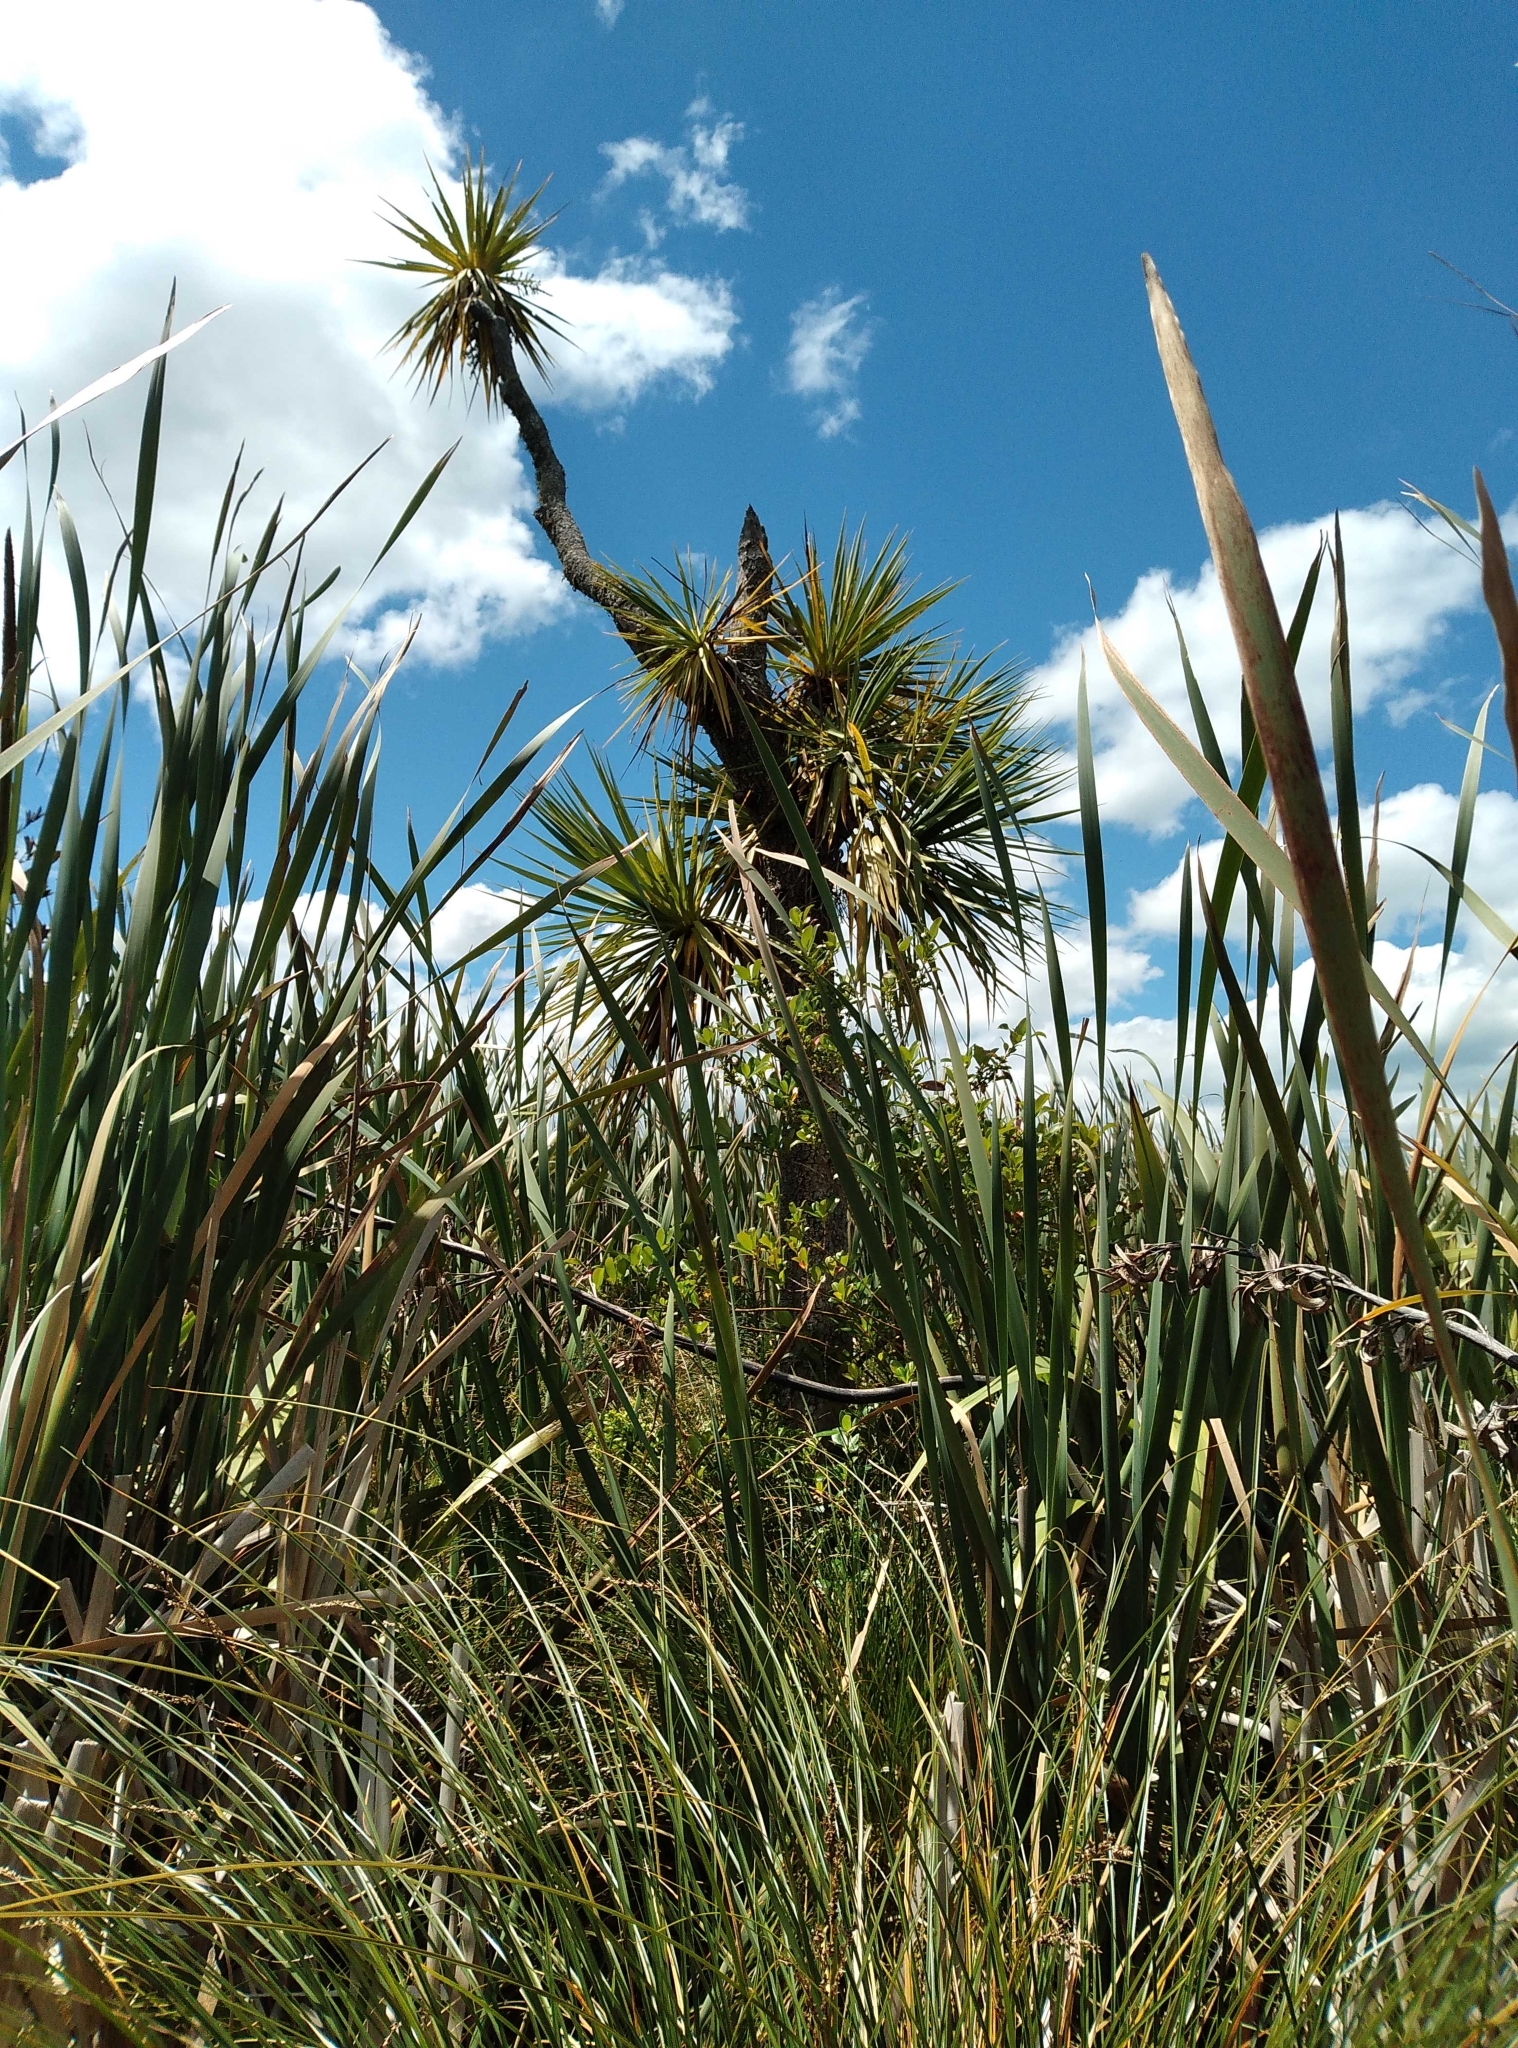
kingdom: Plantae
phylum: Tracheophyta
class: Liliopsida
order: Asparagales
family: Asparagaceae
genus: Cordyline
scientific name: Cordyline australis
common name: Cabbage-palm
